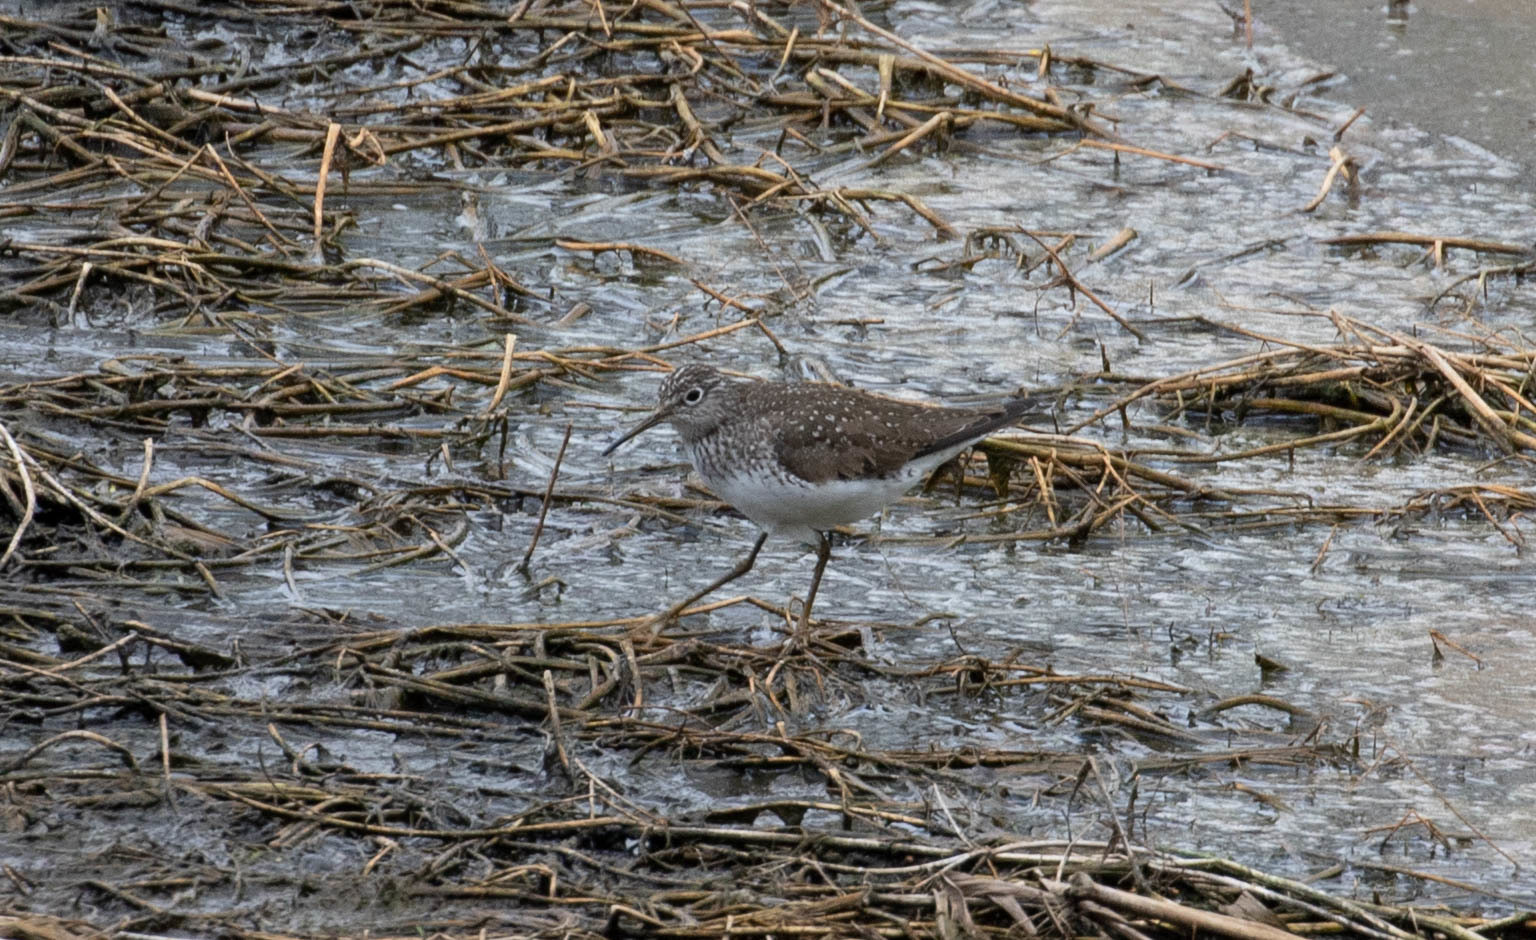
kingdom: Animalia
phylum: Chordata
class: Aves
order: Charadriiformes
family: Scolopacidae
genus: Tringa
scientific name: Tringa solitaria
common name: Solitary sandpiper
